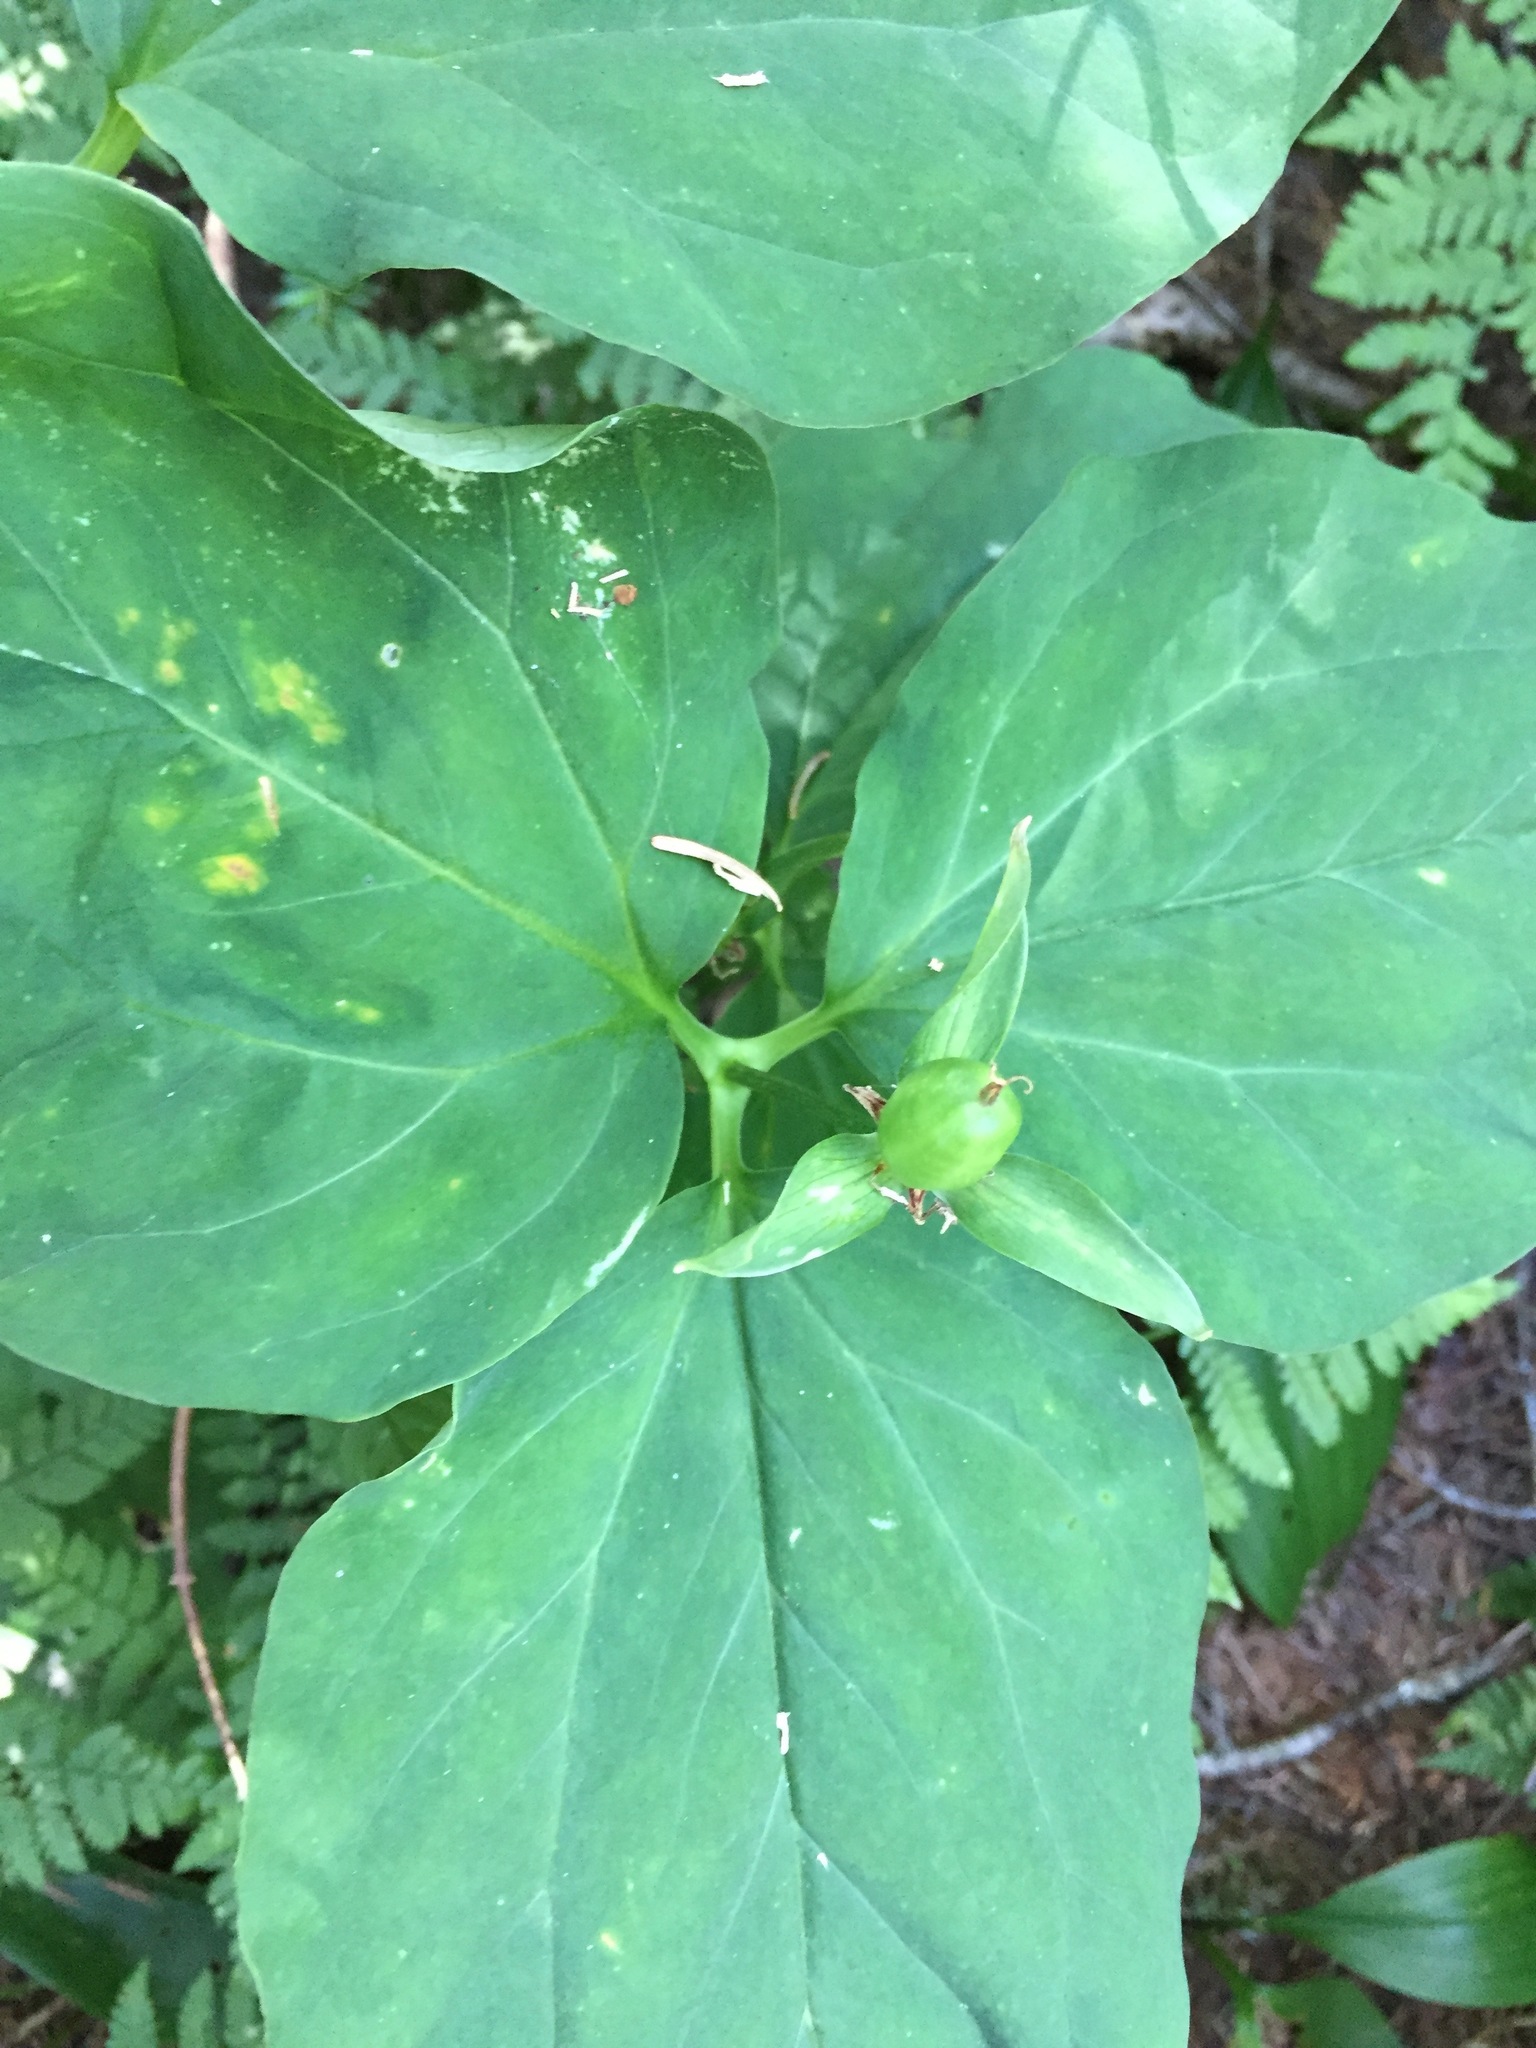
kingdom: Plantae
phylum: Tracheophyta
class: Liliopsida
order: Liliales
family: Melanthiaceae
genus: Trillium
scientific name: Trillium undulatum
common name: Paint trillium
